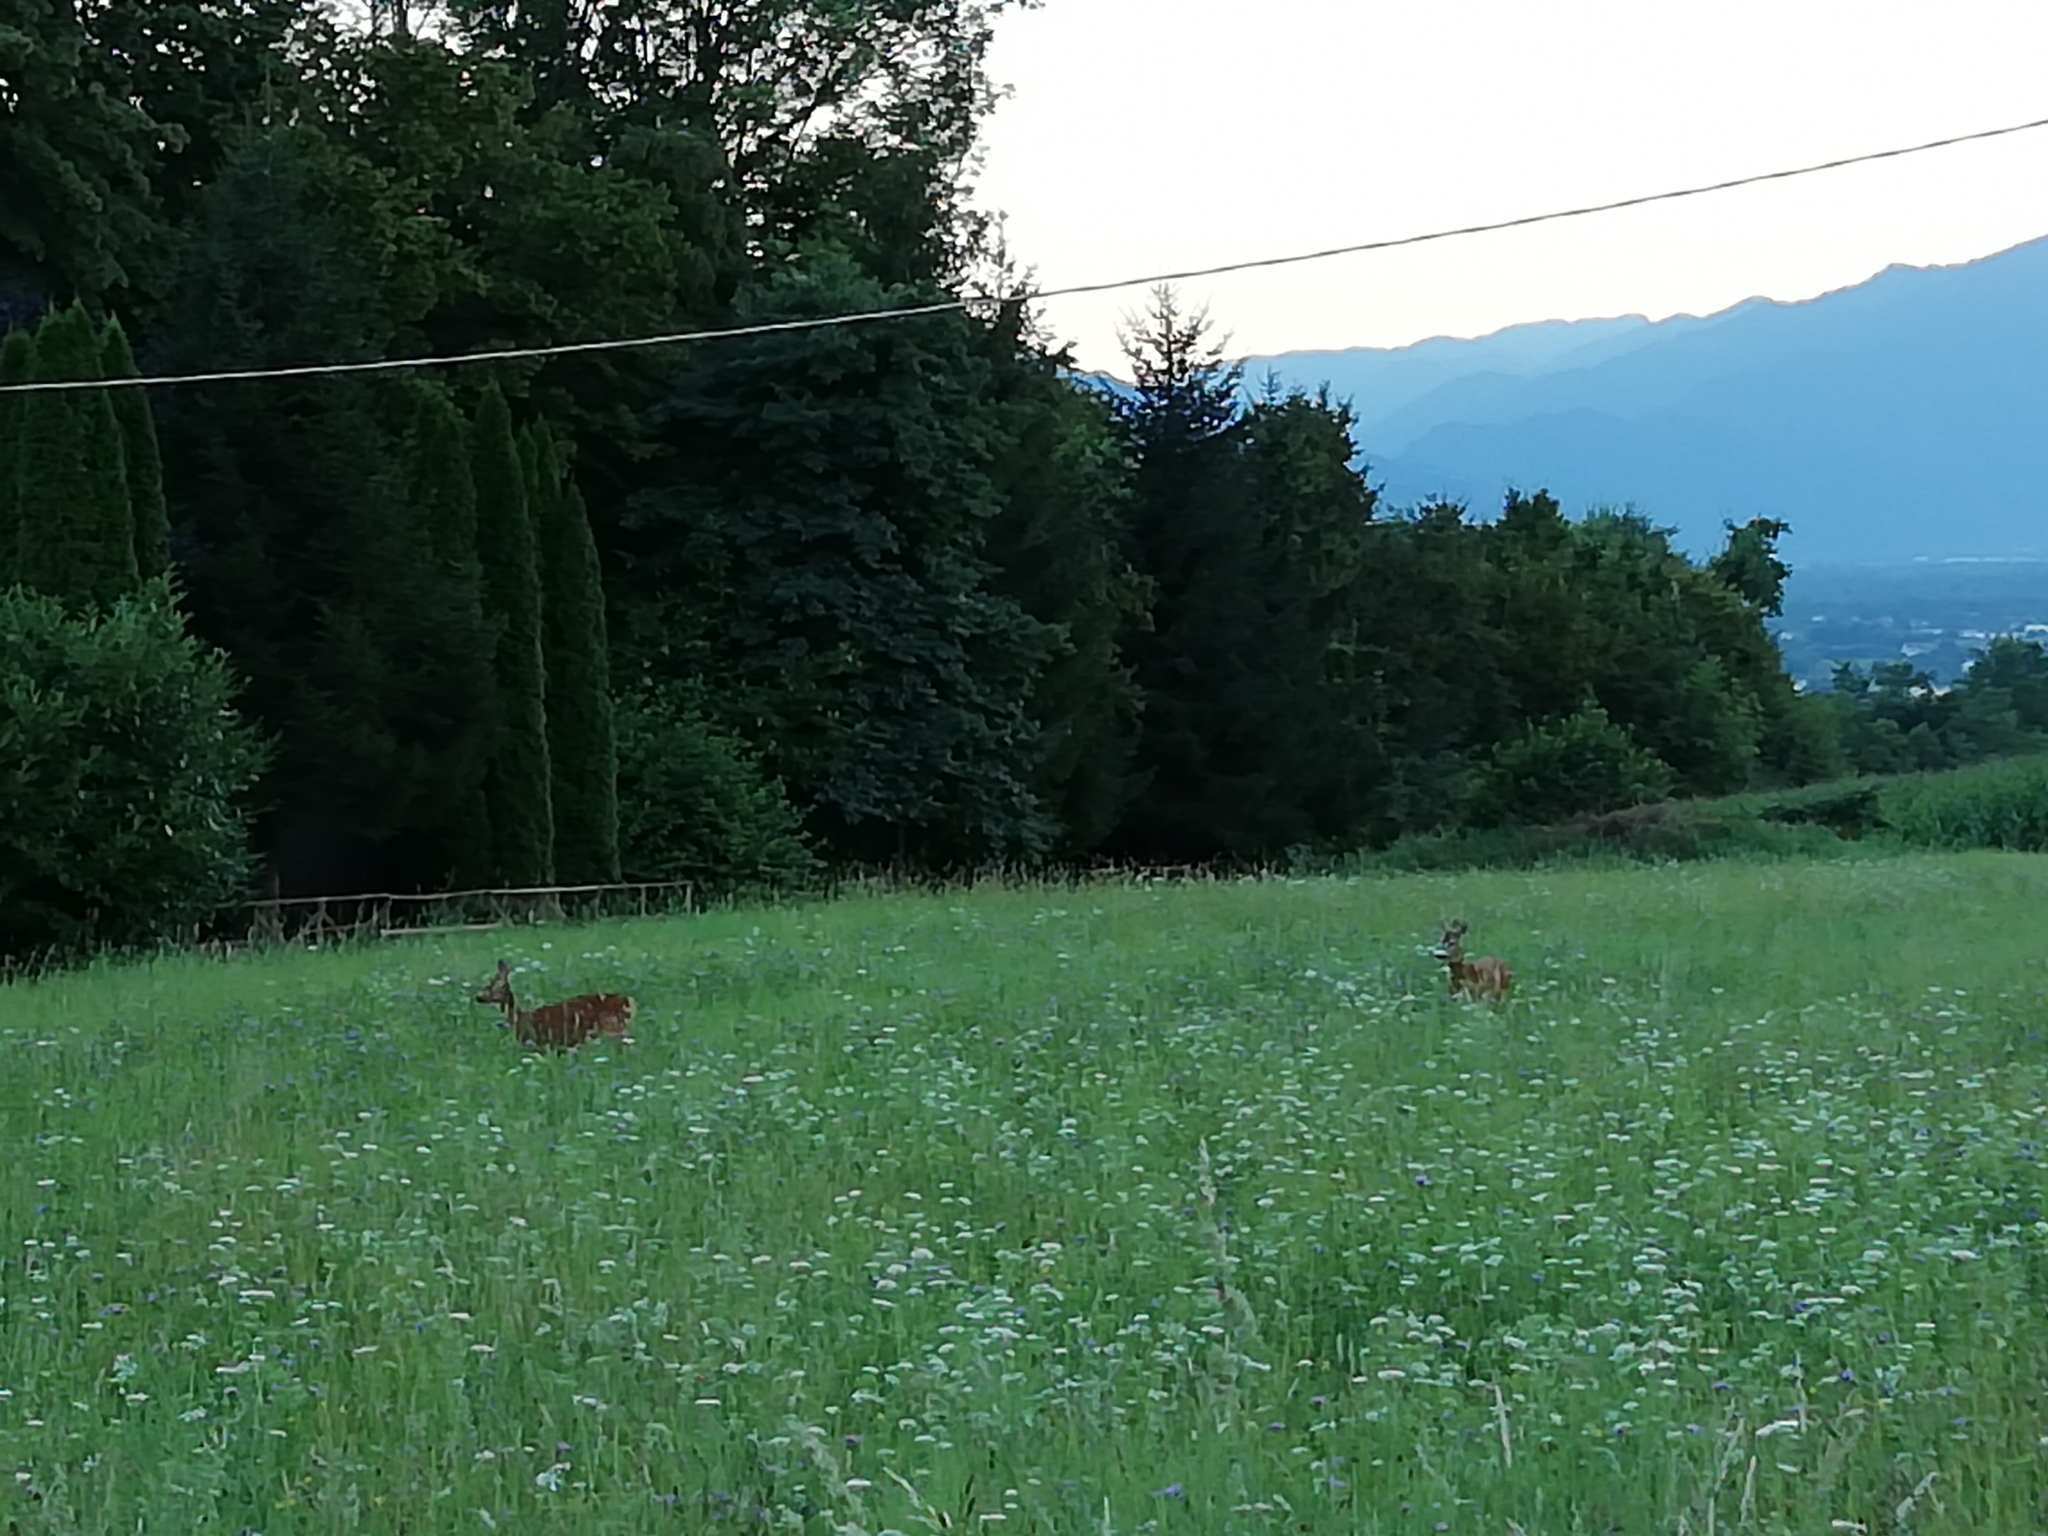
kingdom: Animalia
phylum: Chordata
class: Mammalia
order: Artiodactyla
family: Cervidae
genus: Capreolus
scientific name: Capreolus capreolus
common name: Western roe deer
